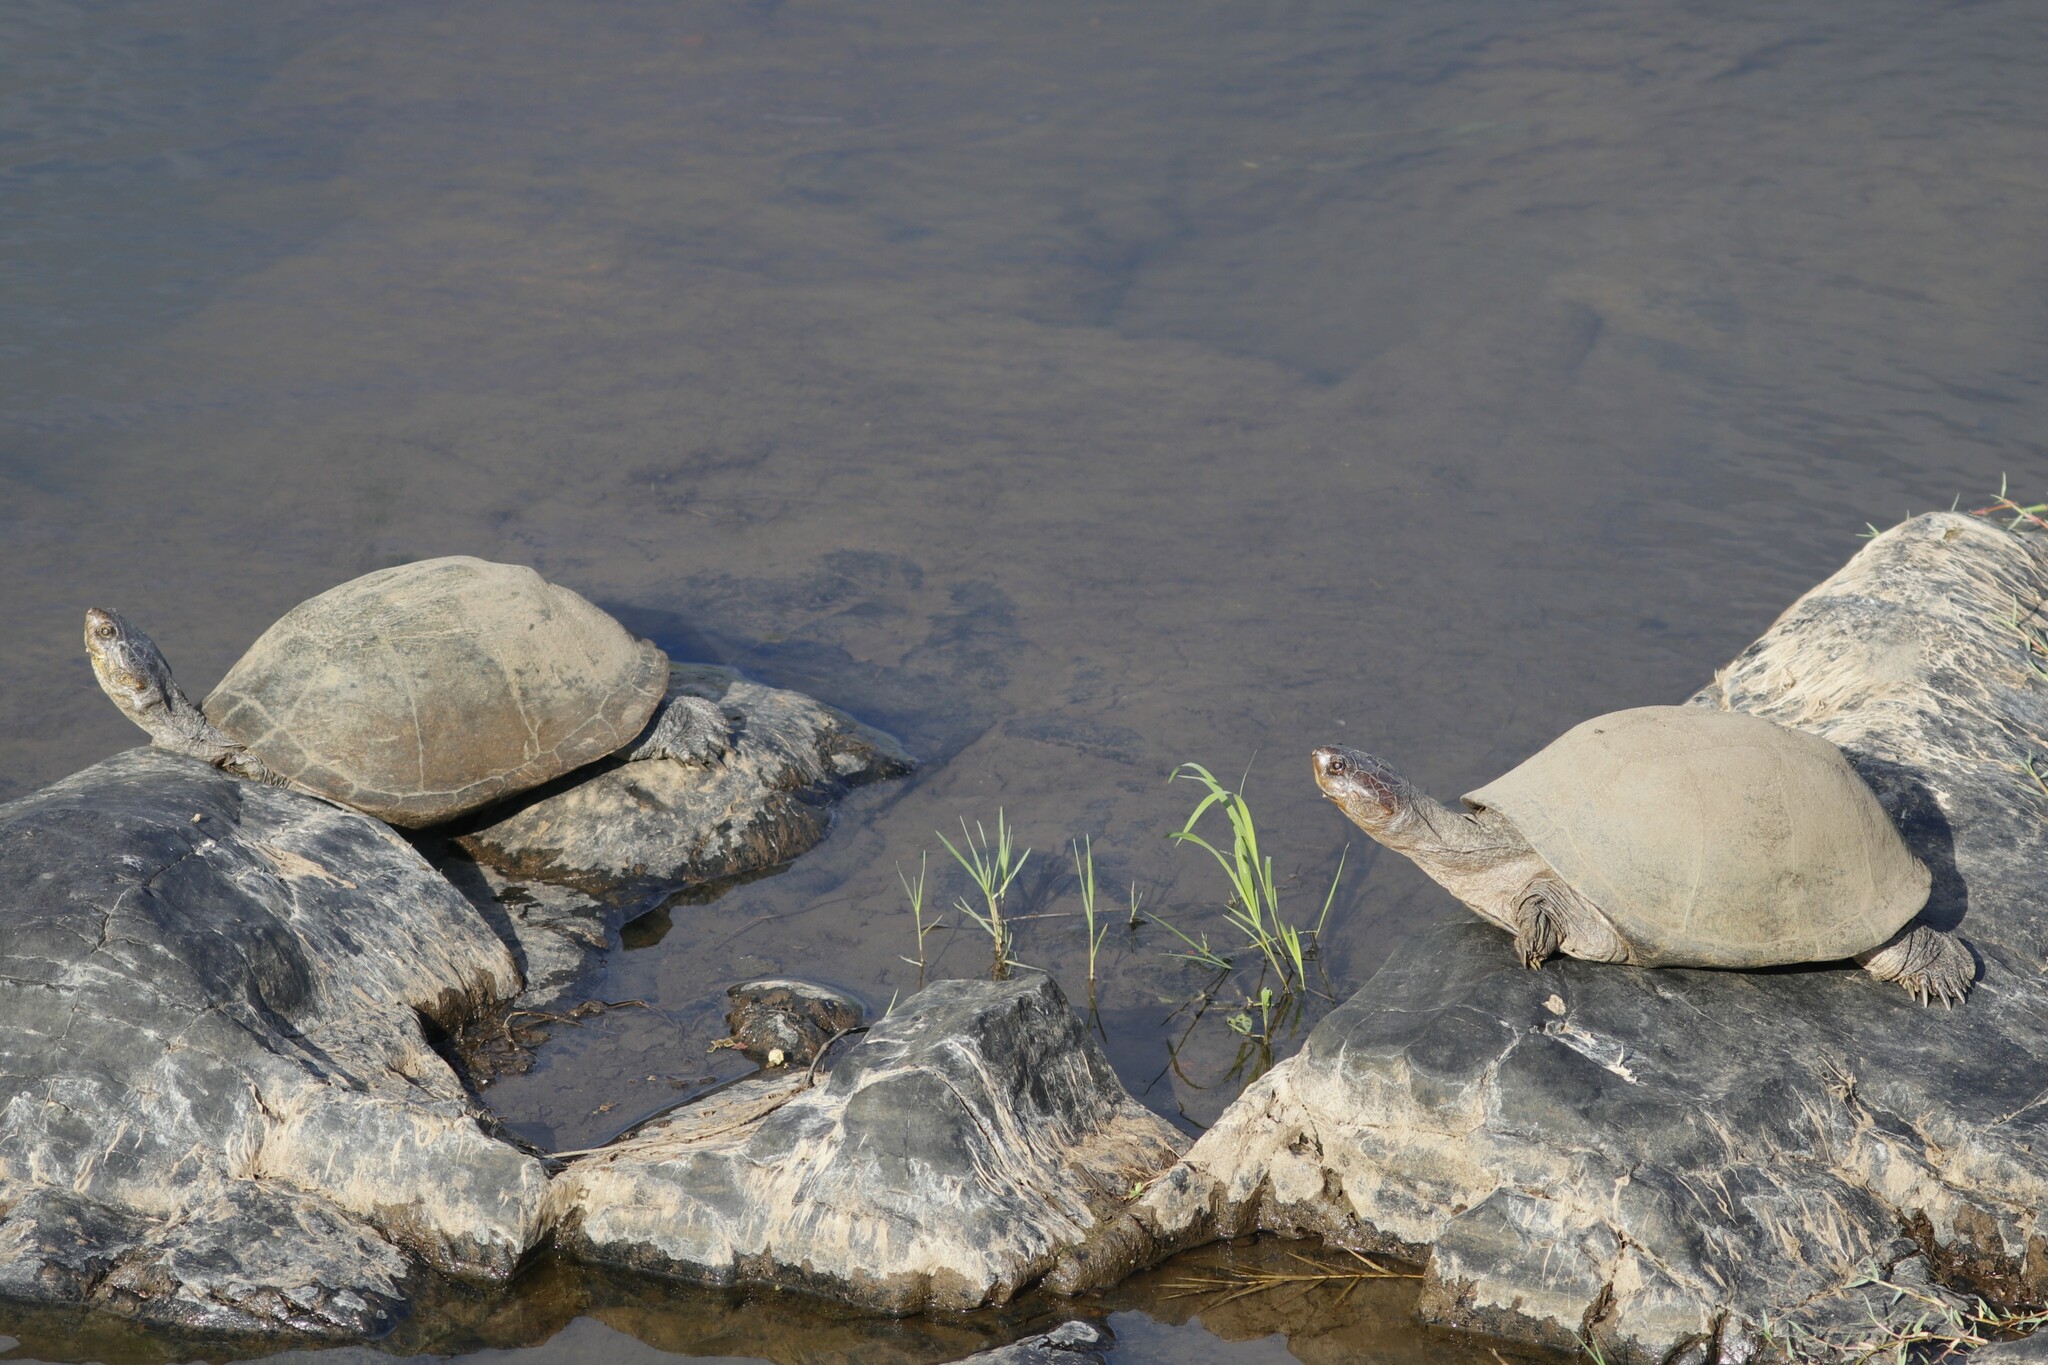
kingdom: Animalia
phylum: Chordata
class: Testudines
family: Pelomedusidae
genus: Pelusios
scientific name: Pelusios sinuatus
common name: Serrated hinged terrapin
